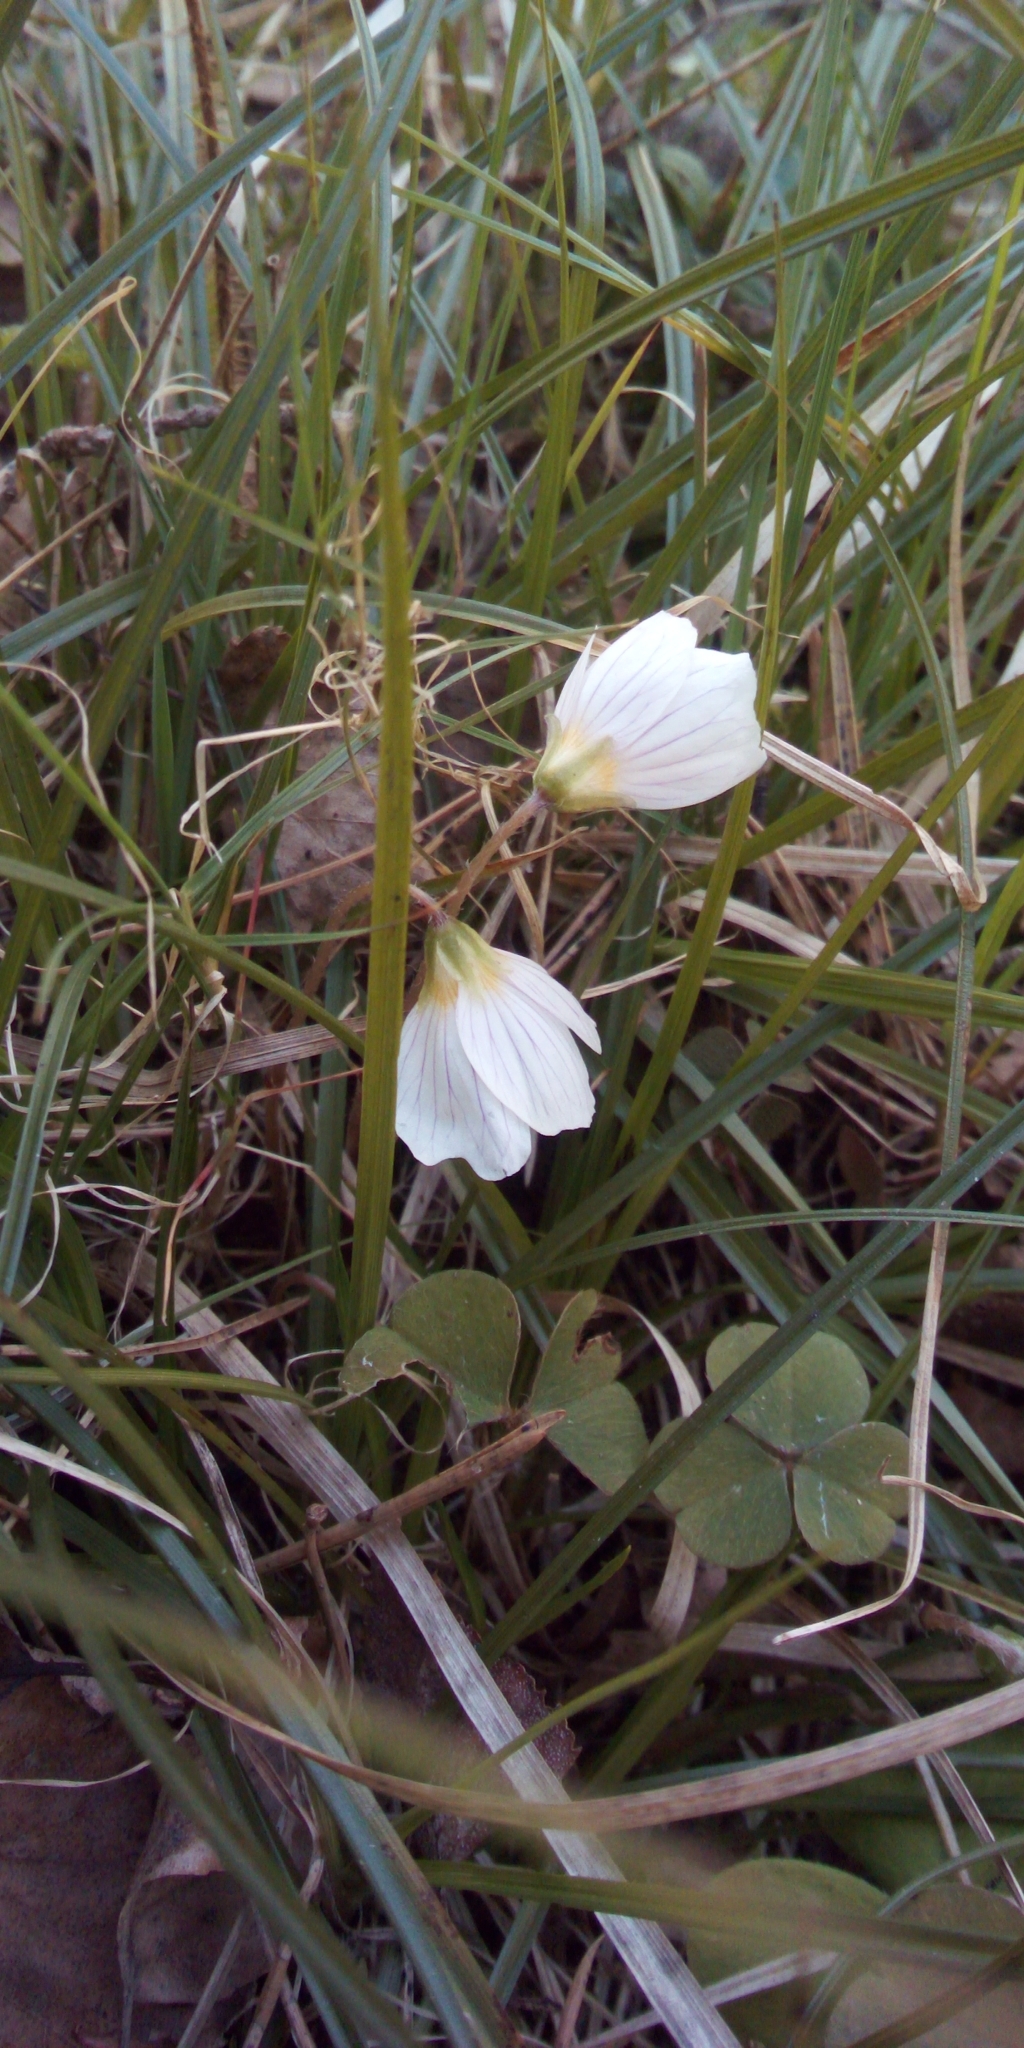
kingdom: Plantae
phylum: Tracheophyta
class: Magnoliopsida
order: Oxalidales
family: Oxalidaceae
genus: Oxalis
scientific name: Oxalis acetosella
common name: Wood-sorrel
